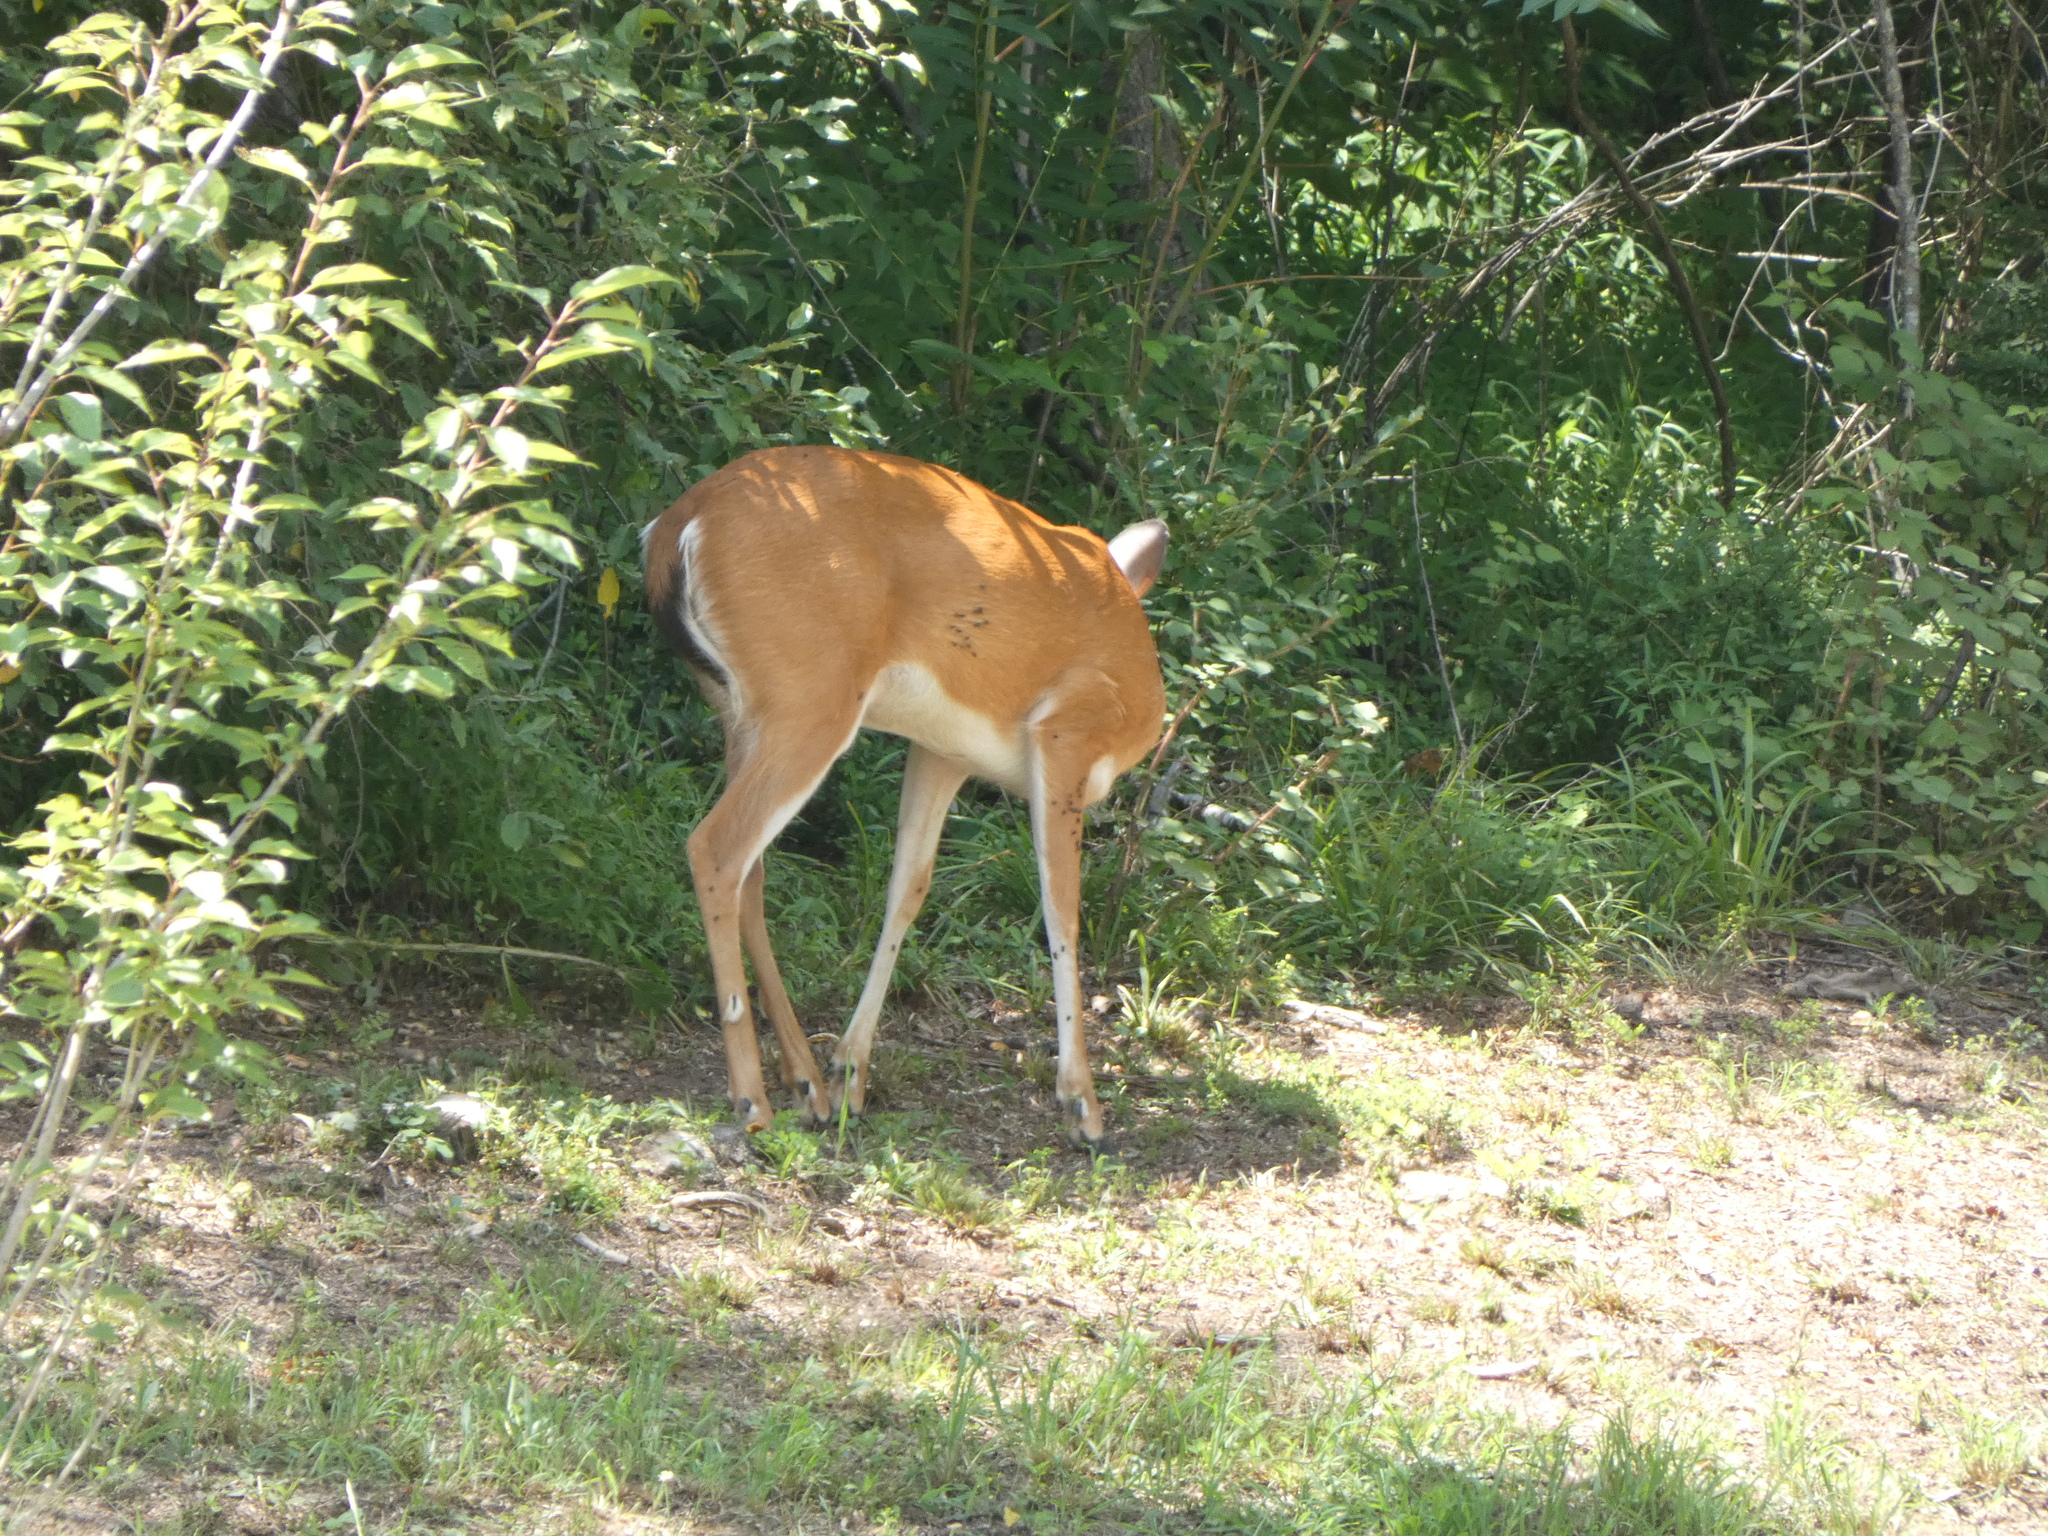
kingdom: Animalia
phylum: Chordata
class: Mammalia
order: Artiodactyla
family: Cervidae
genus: Odocoileus
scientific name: Odocoileus virginianus
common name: White-tailed deer
